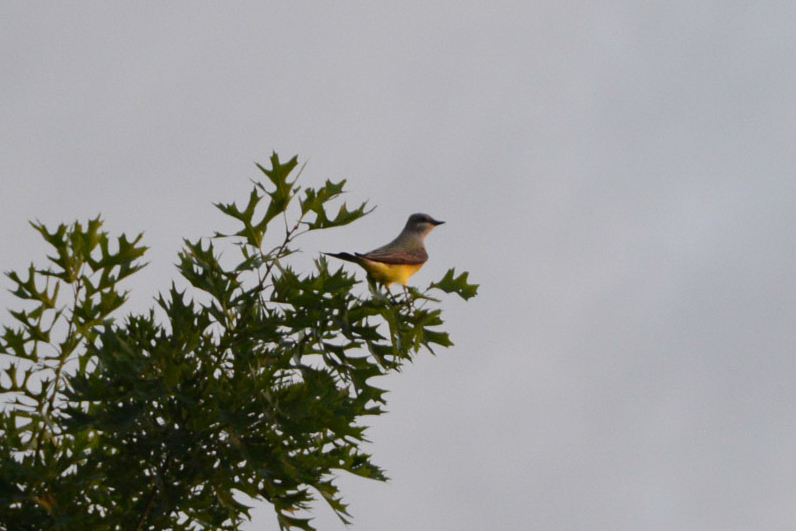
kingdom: Animalia
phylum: Chordata
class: Aves
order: Passeriformes
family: Tyrannidae
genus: Tyrannus
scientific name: Tyrannus verticalis
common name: Western kingbird
